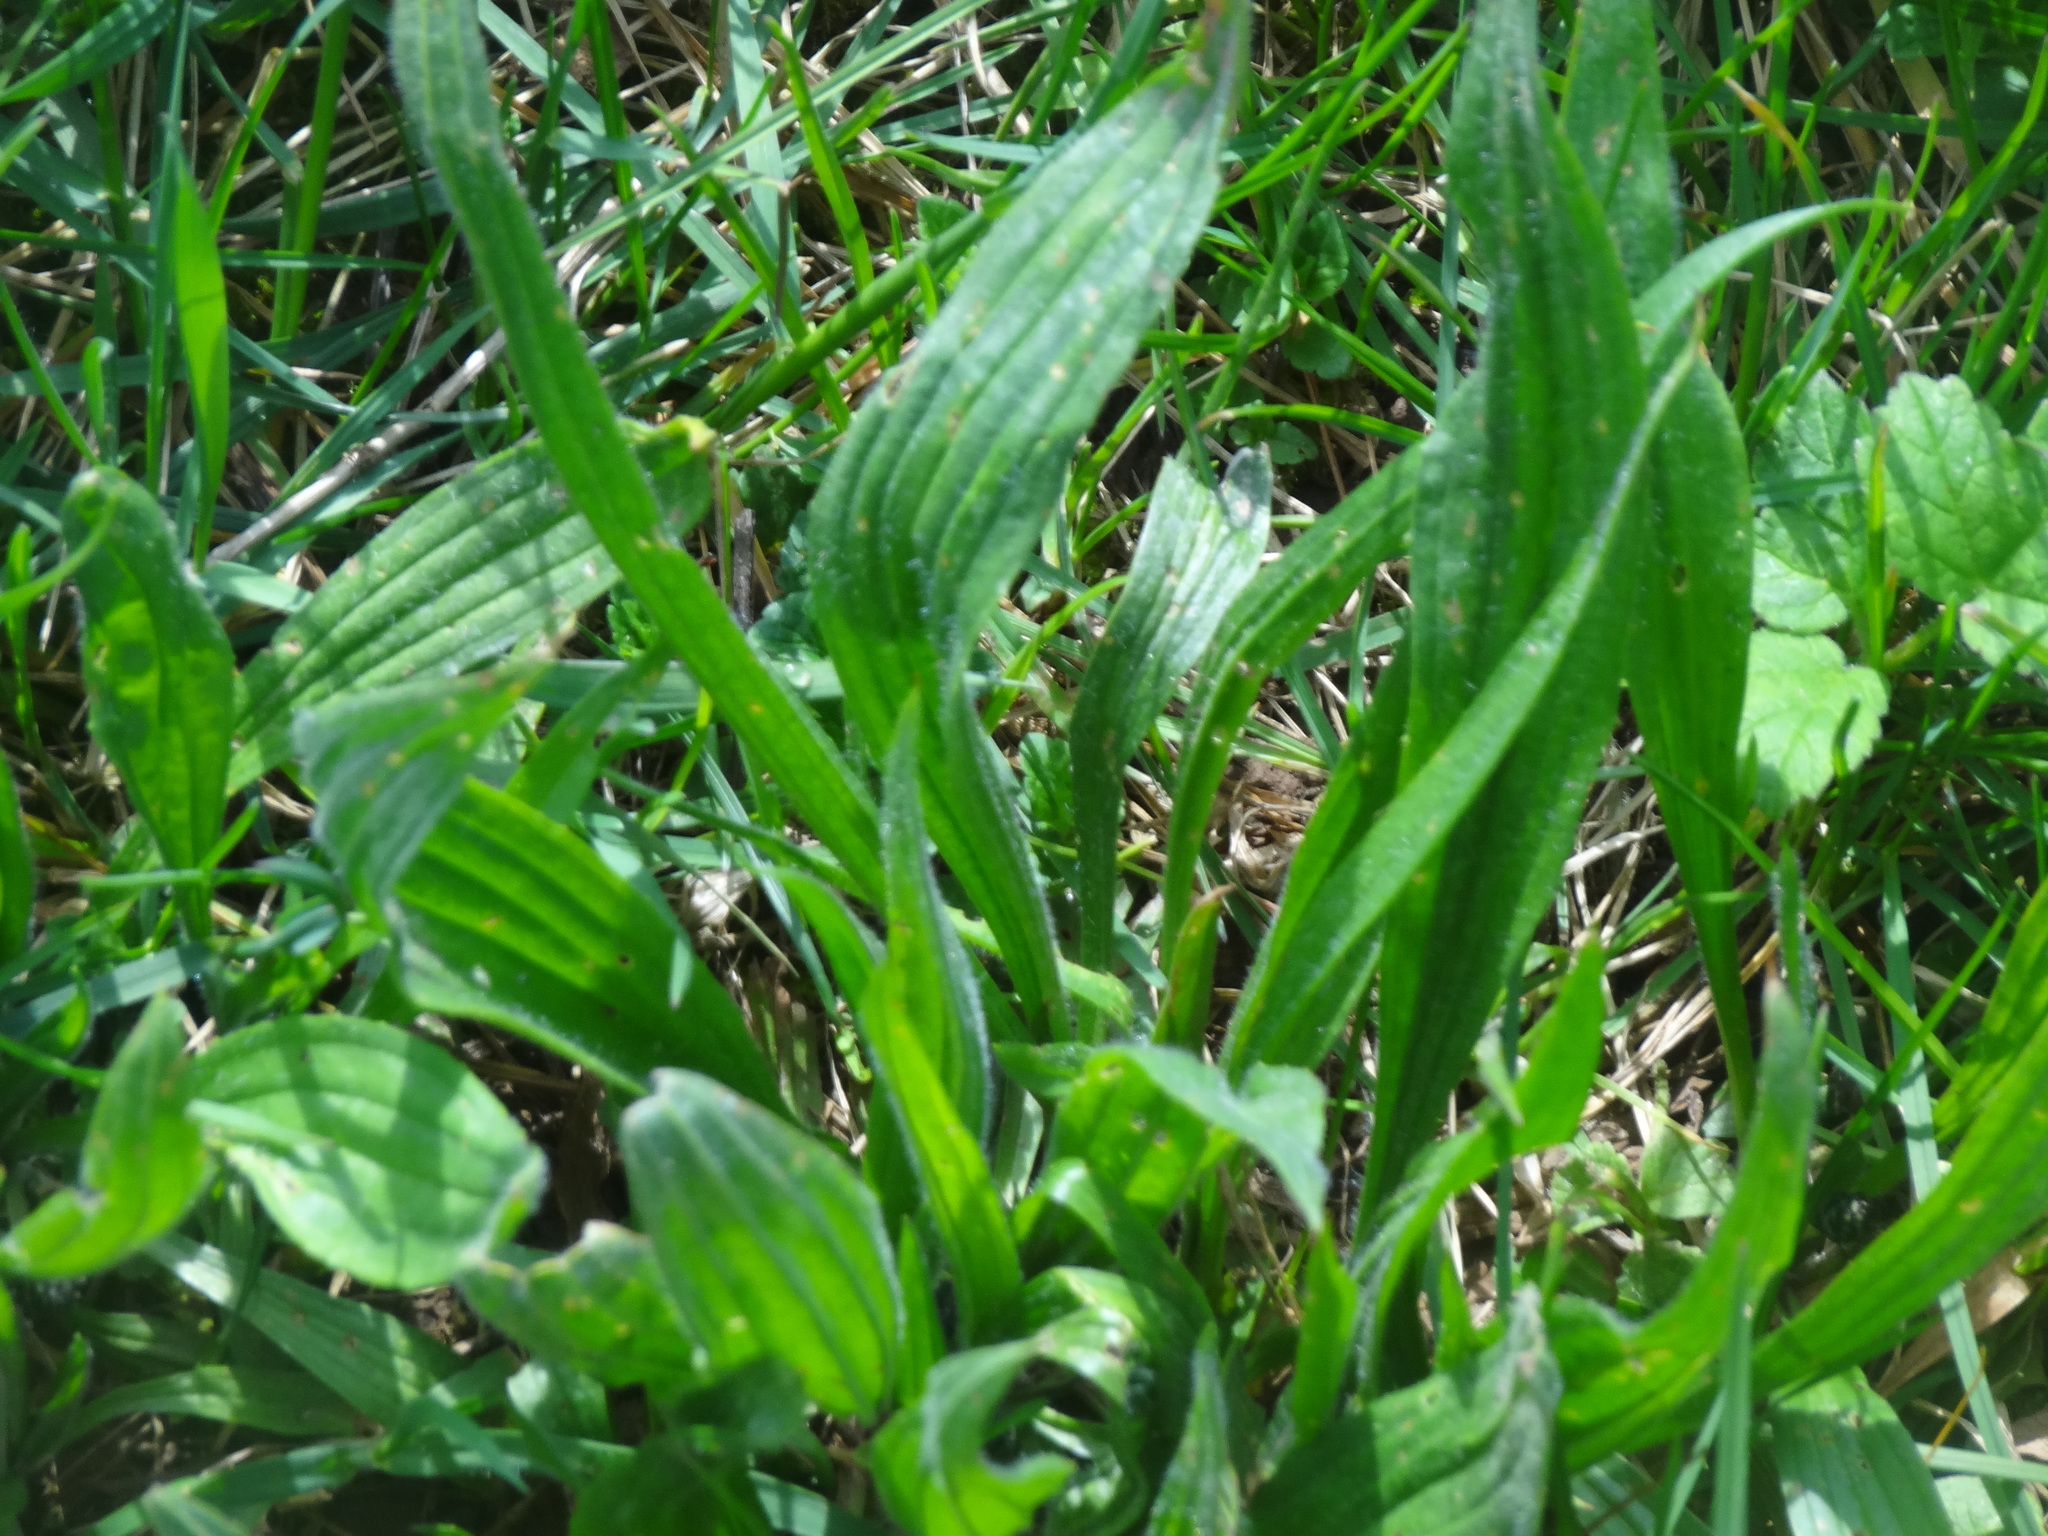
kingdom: Plantae
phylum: Tracheophyta
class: Magnoliopsida
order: Lamiales
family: Plantaginaceae
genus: Plantago
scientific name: Plantago lanceolata
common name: Ribwort plantain
